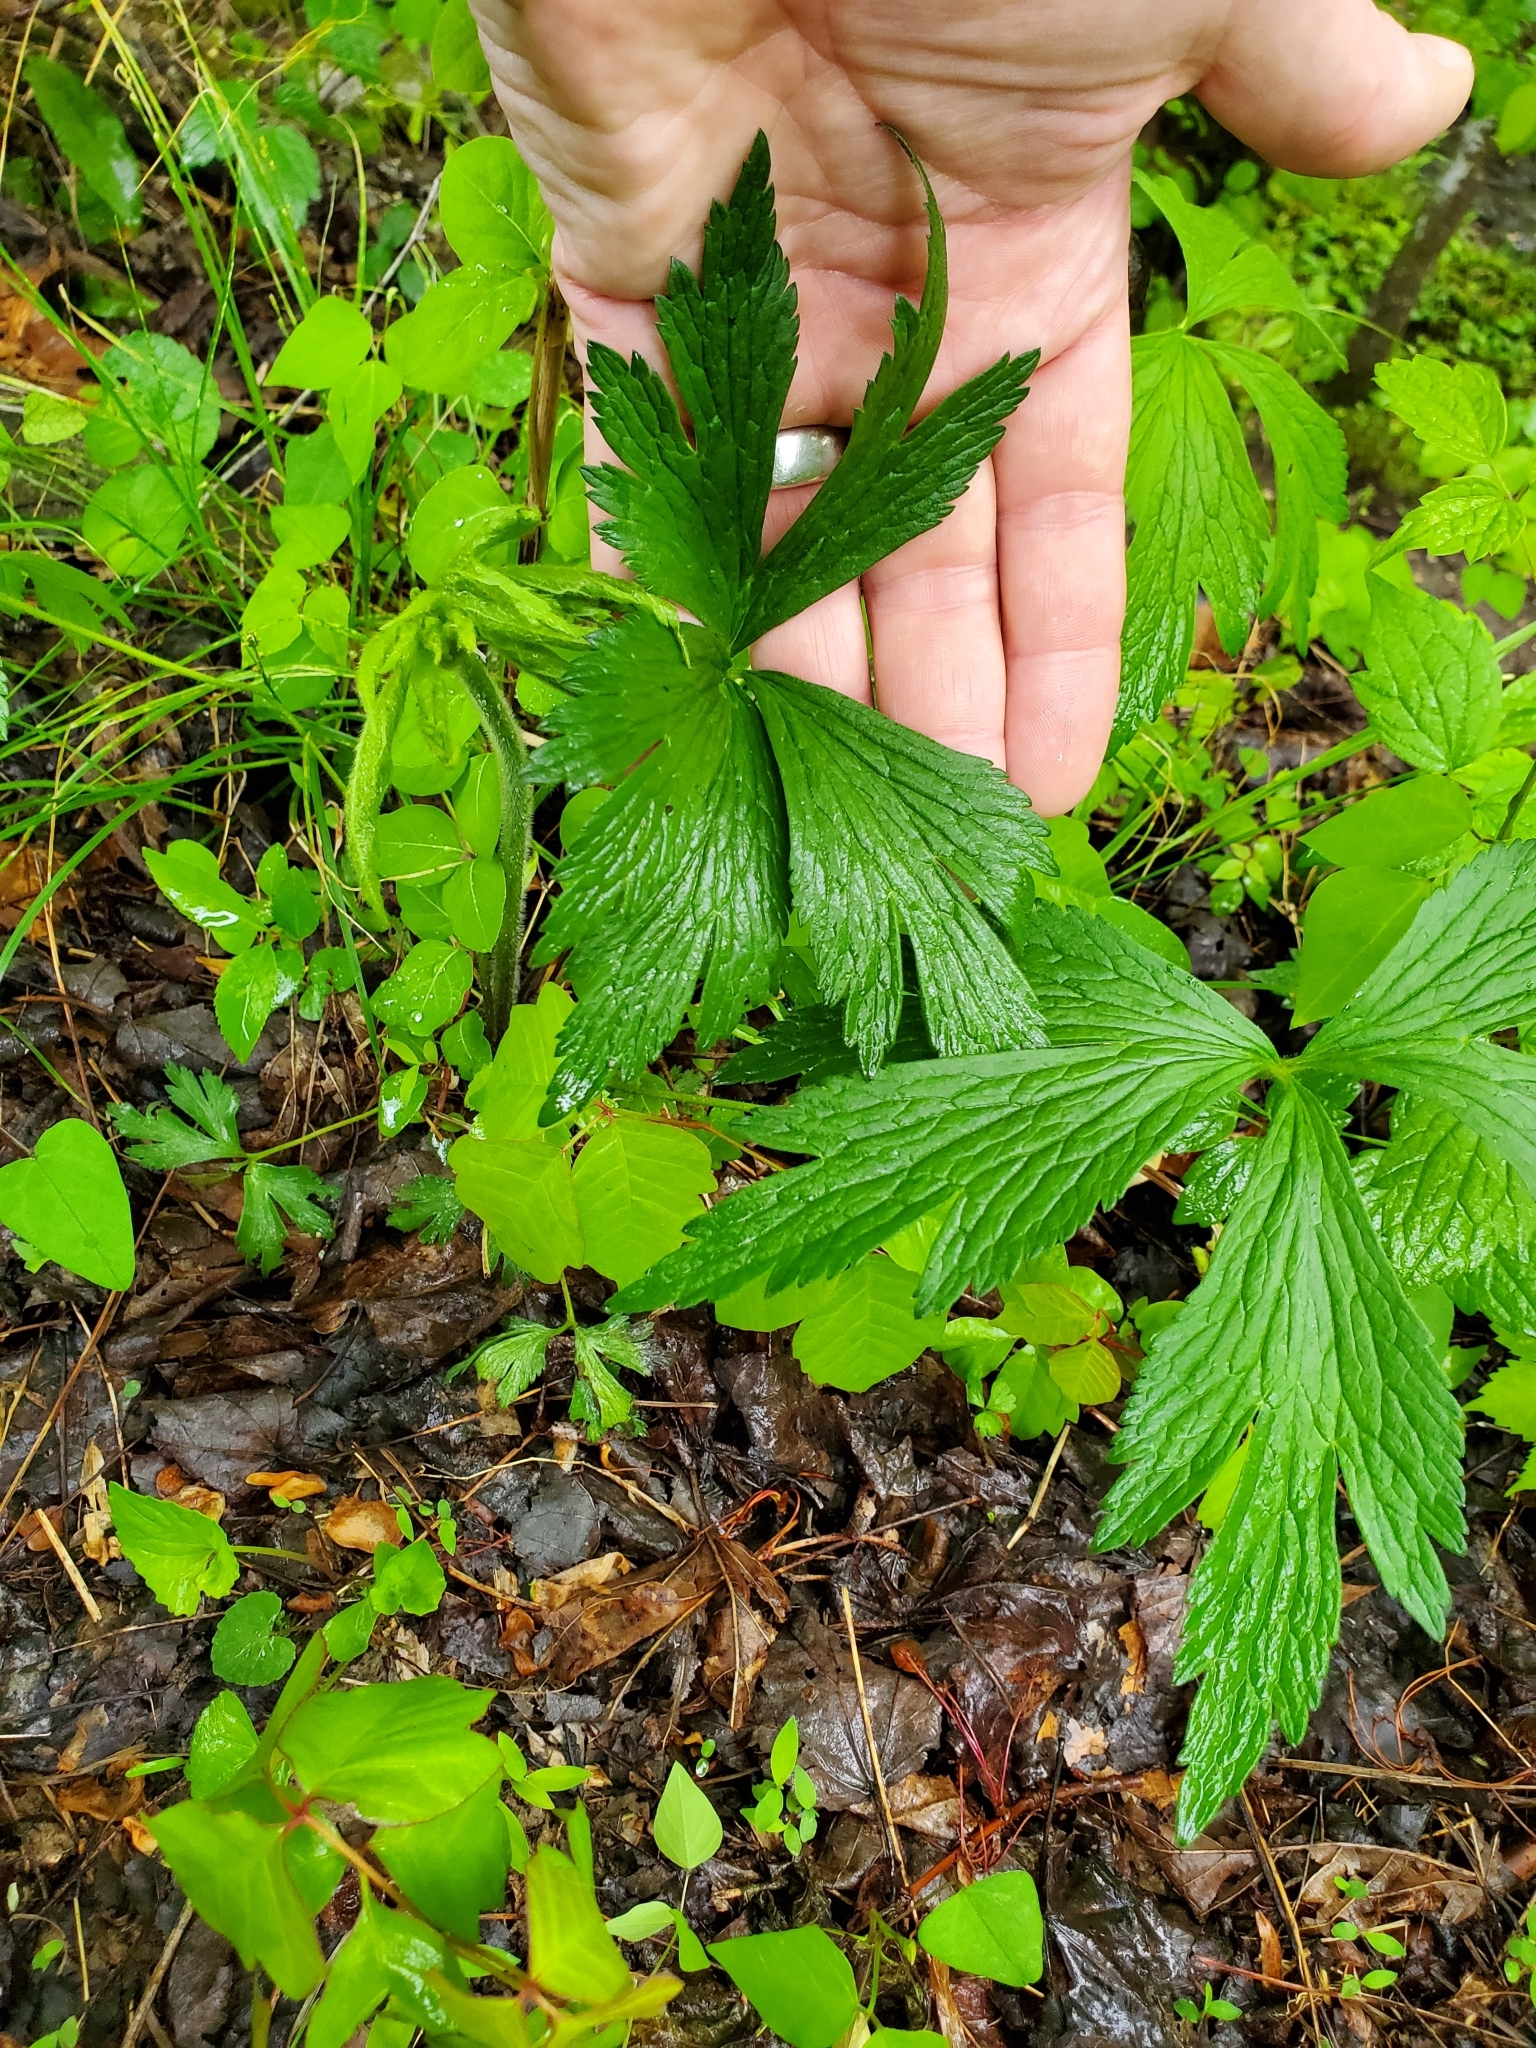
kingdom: Plantae
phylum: Tracheophyta
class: Magnoliopsida
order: Ranunculales
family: Ranunculaceae
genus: Anemone
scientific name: Anemone virginiana
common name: Tall anemone
